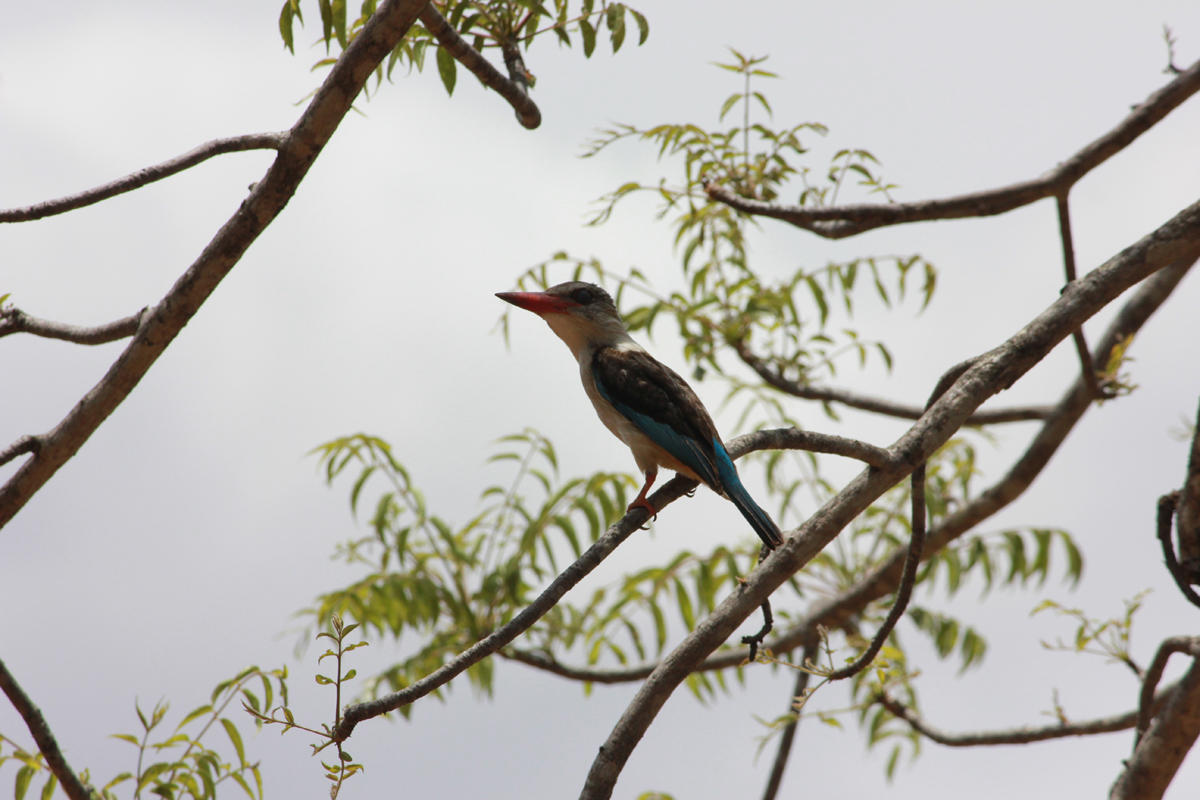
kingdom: Animalia
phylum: Chordata
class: Aves
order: Coraciiformes
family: Alcedinidae
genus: Halcyon
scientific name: Halcyon albiventris
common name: Brown-hooded kingfisher
